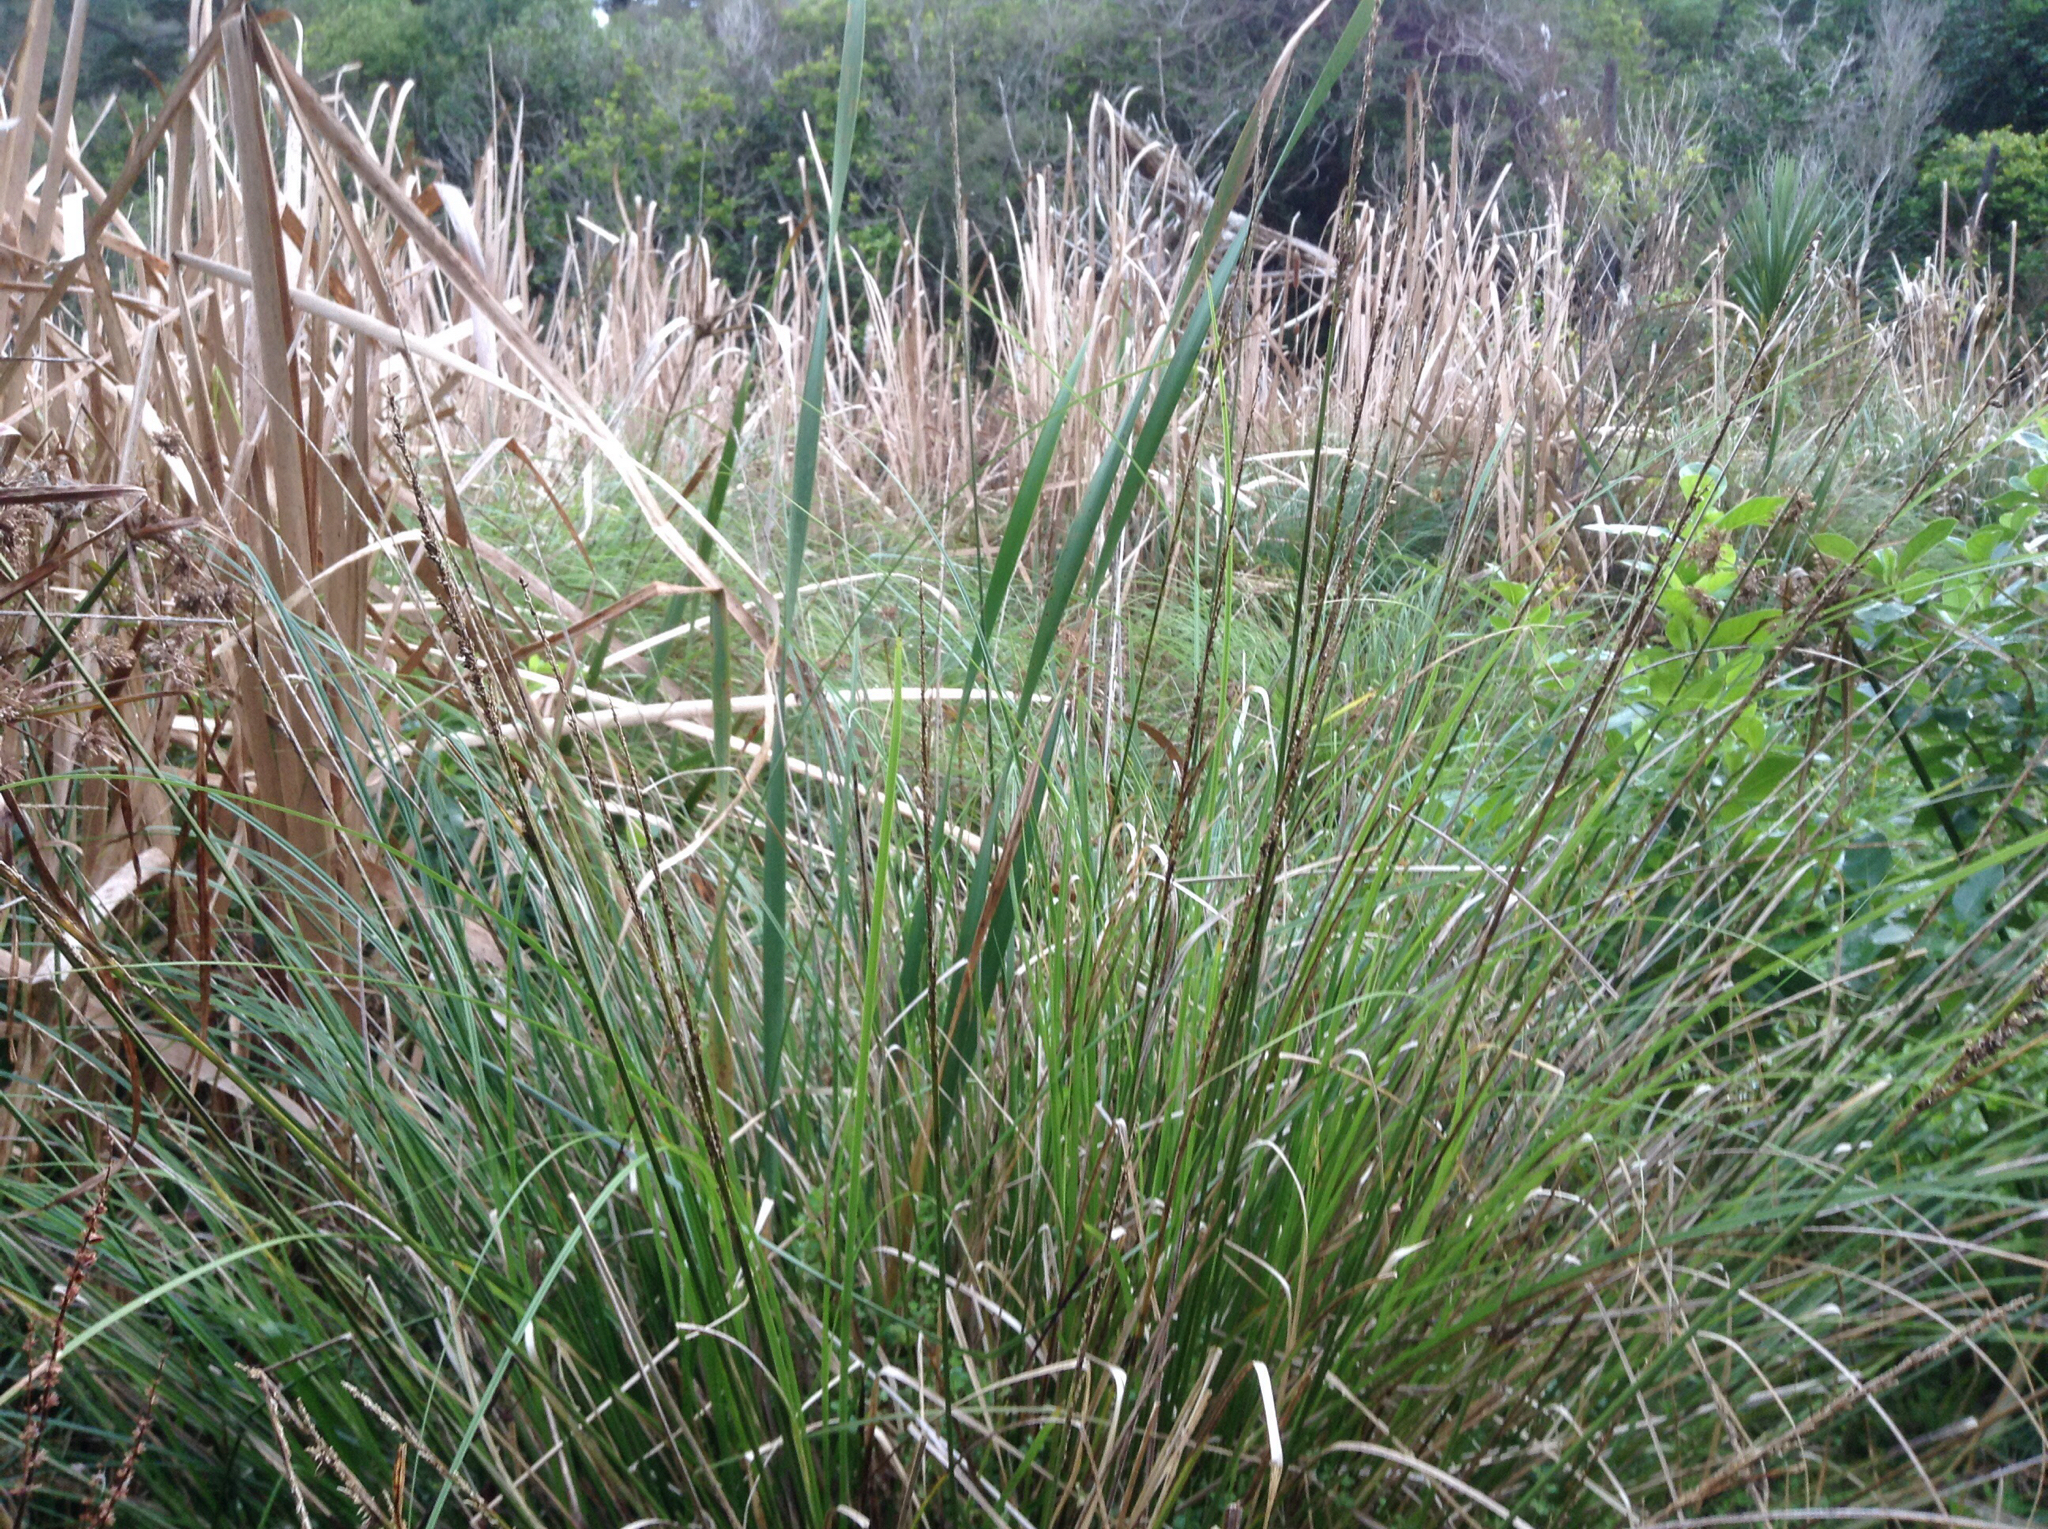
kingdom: Plantae
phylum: Tracheophyta
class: Liliopsida
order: Poales
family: Cyperaceae
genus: Carex
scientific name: Carex virgata
